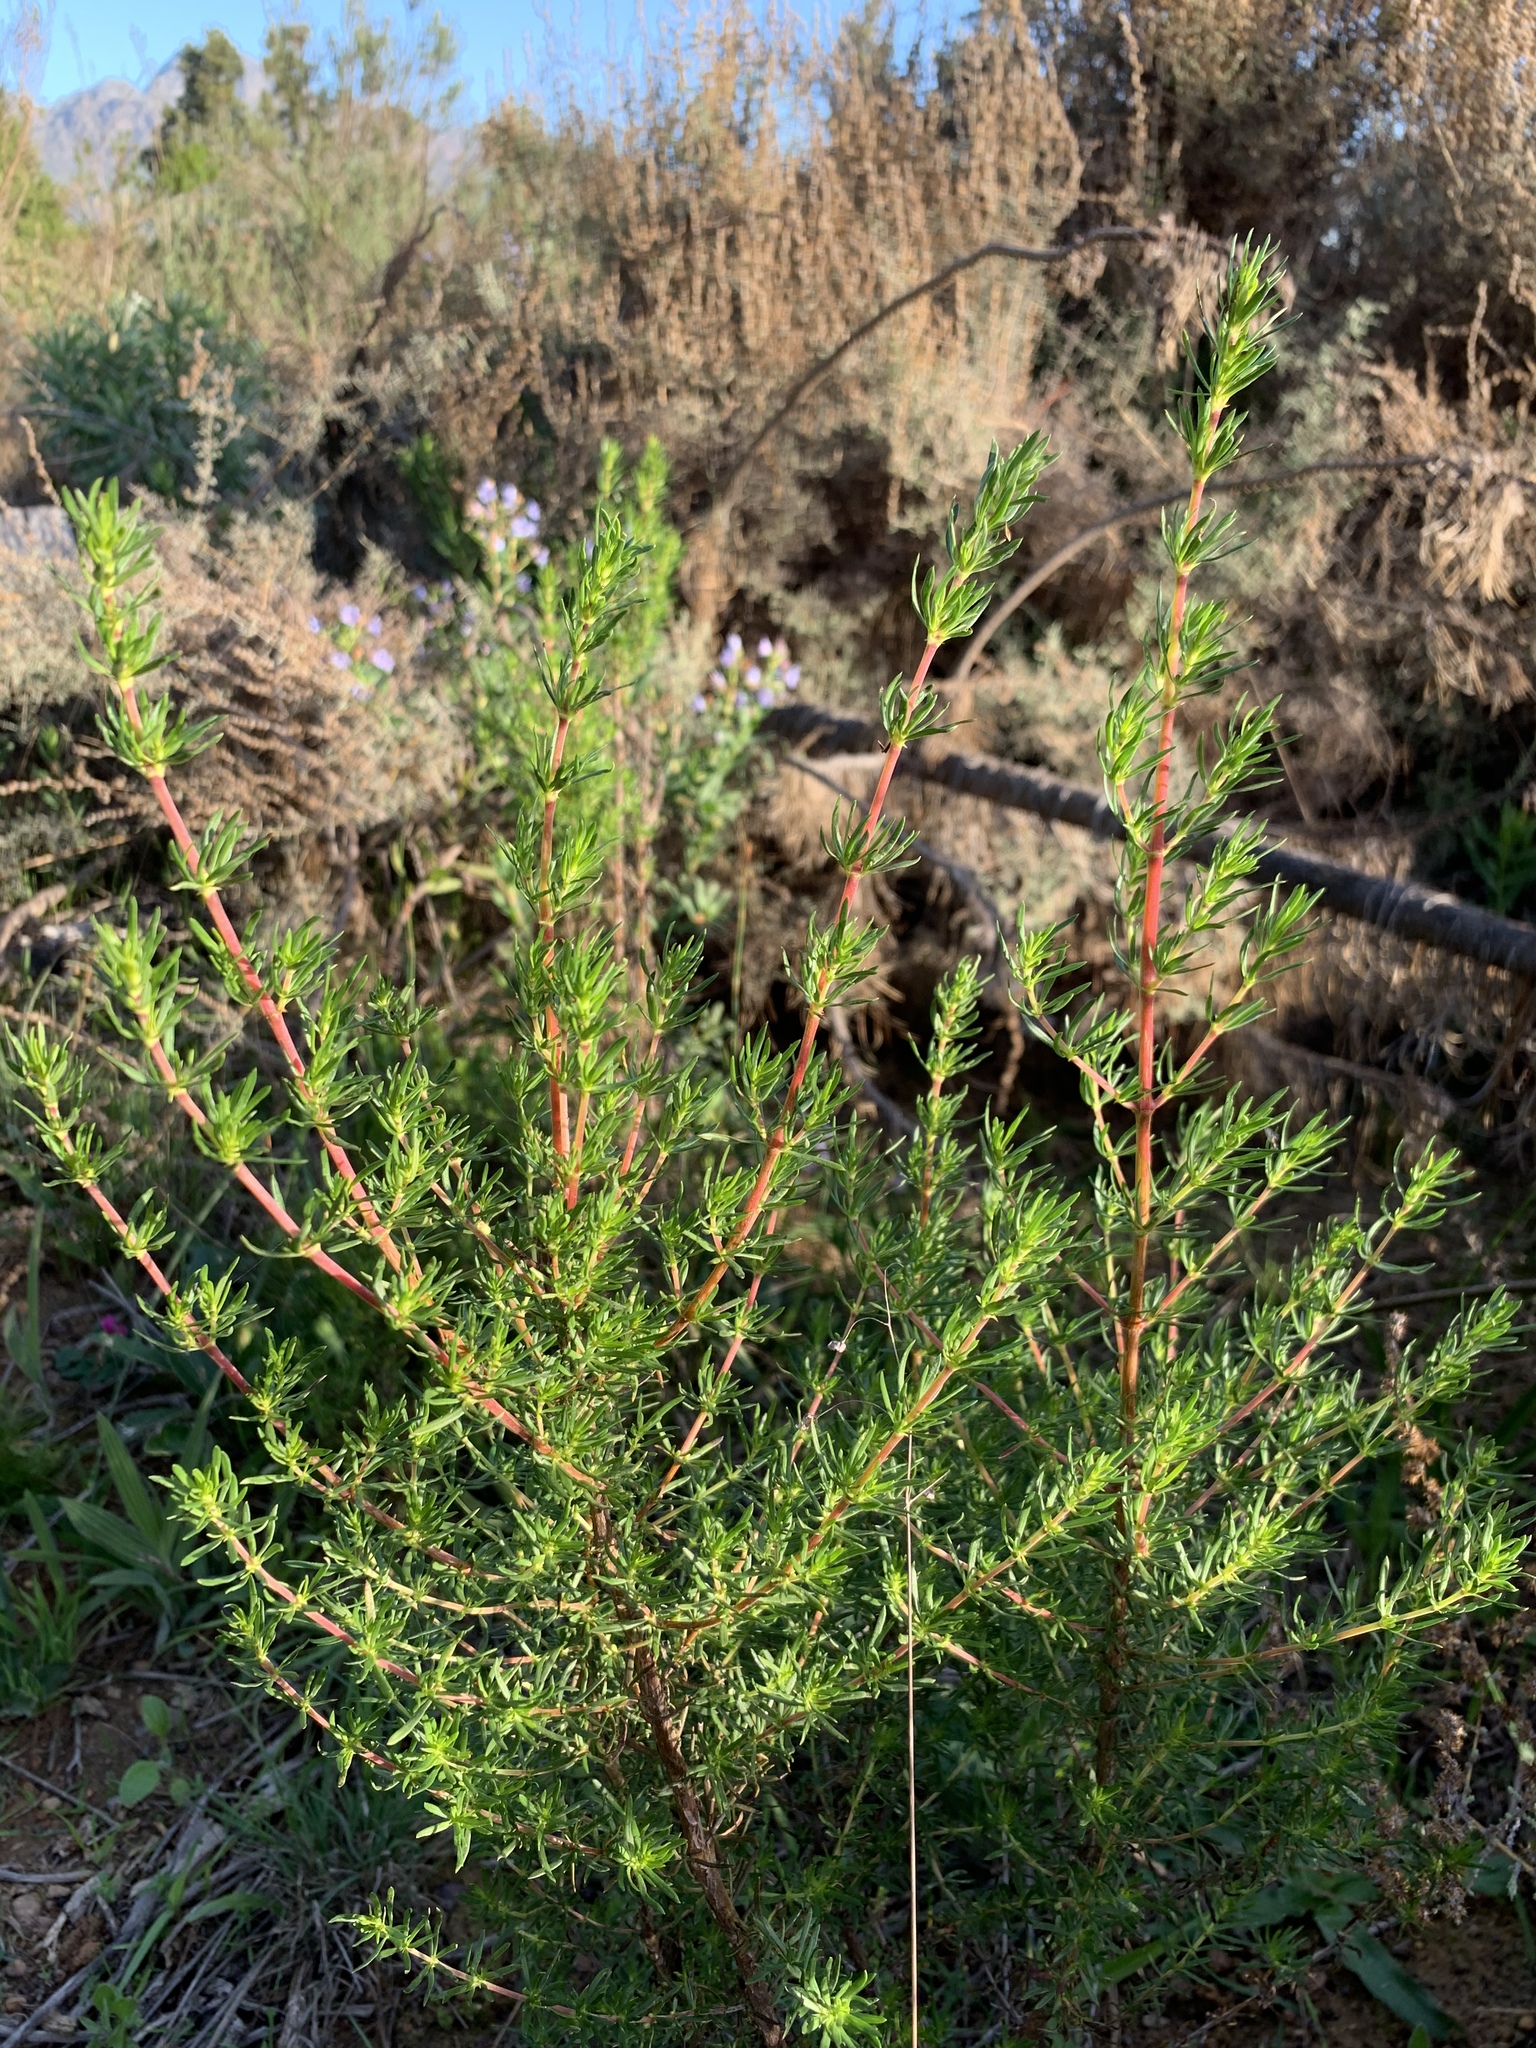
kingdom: Plantae
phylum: Tracheophyta
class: Magnoliopsida
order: Gentianales
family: Rubiaceae
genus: Anthospermum
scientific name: Anthospermum aethiopicum
